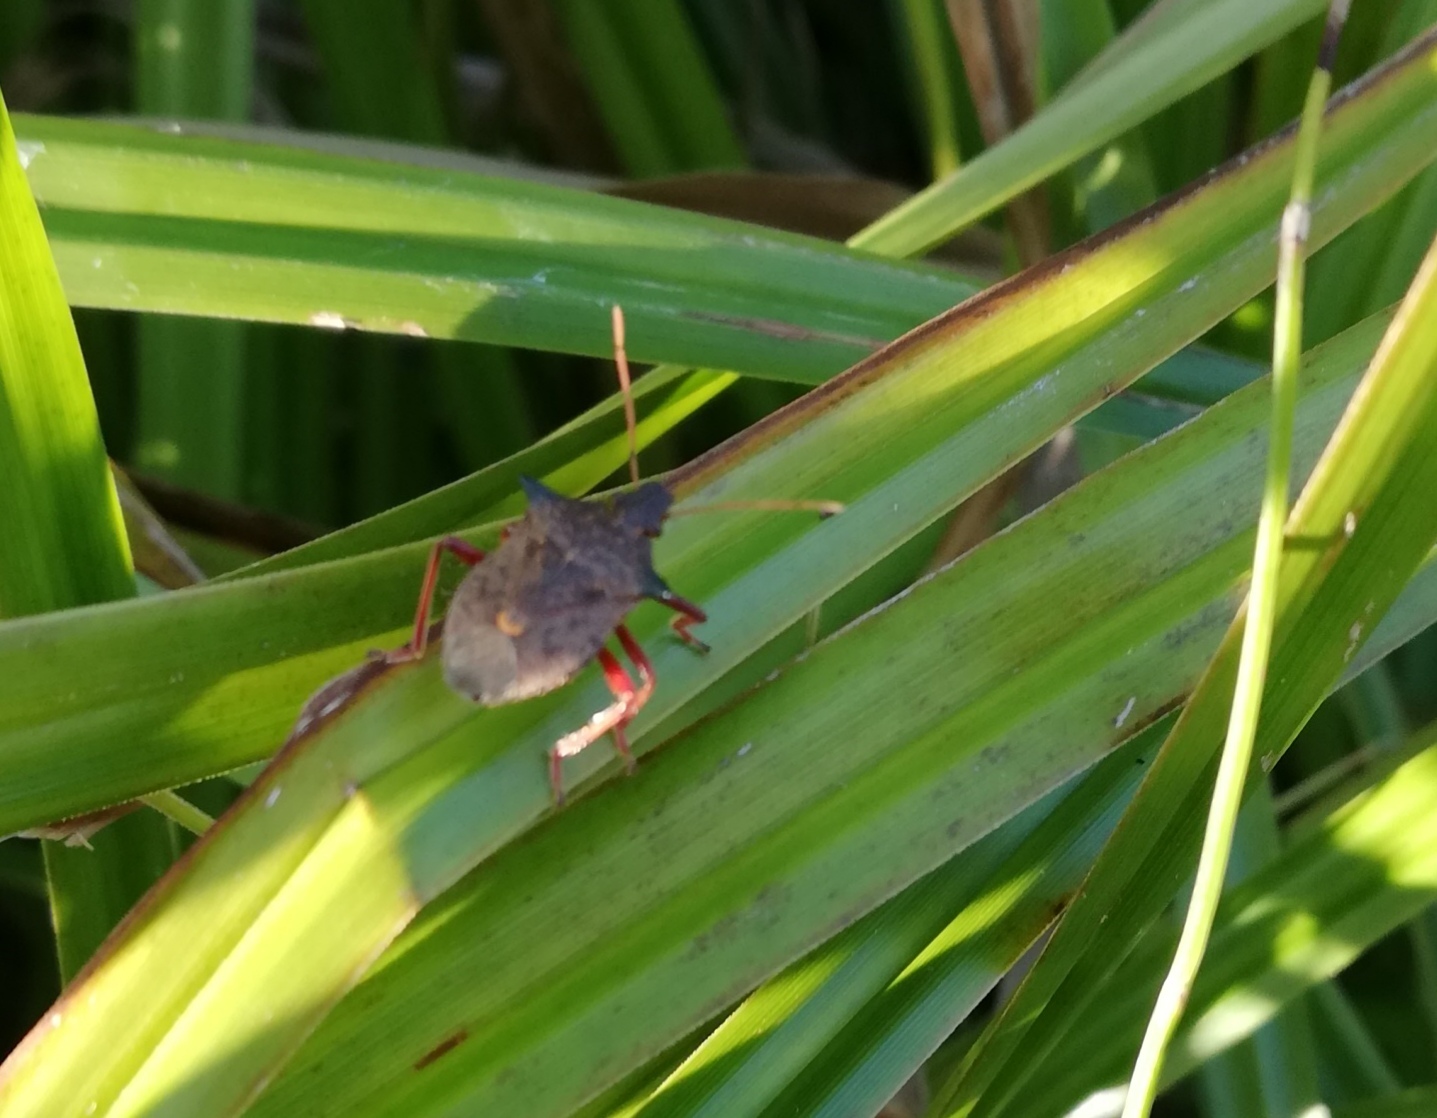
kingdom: Animalia
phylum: Arthropoda
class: Insecta
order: Hemiptera
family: Pentatomidae
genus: Picromerus
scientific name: Picromerus bidens
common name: Spiked shieldbug
